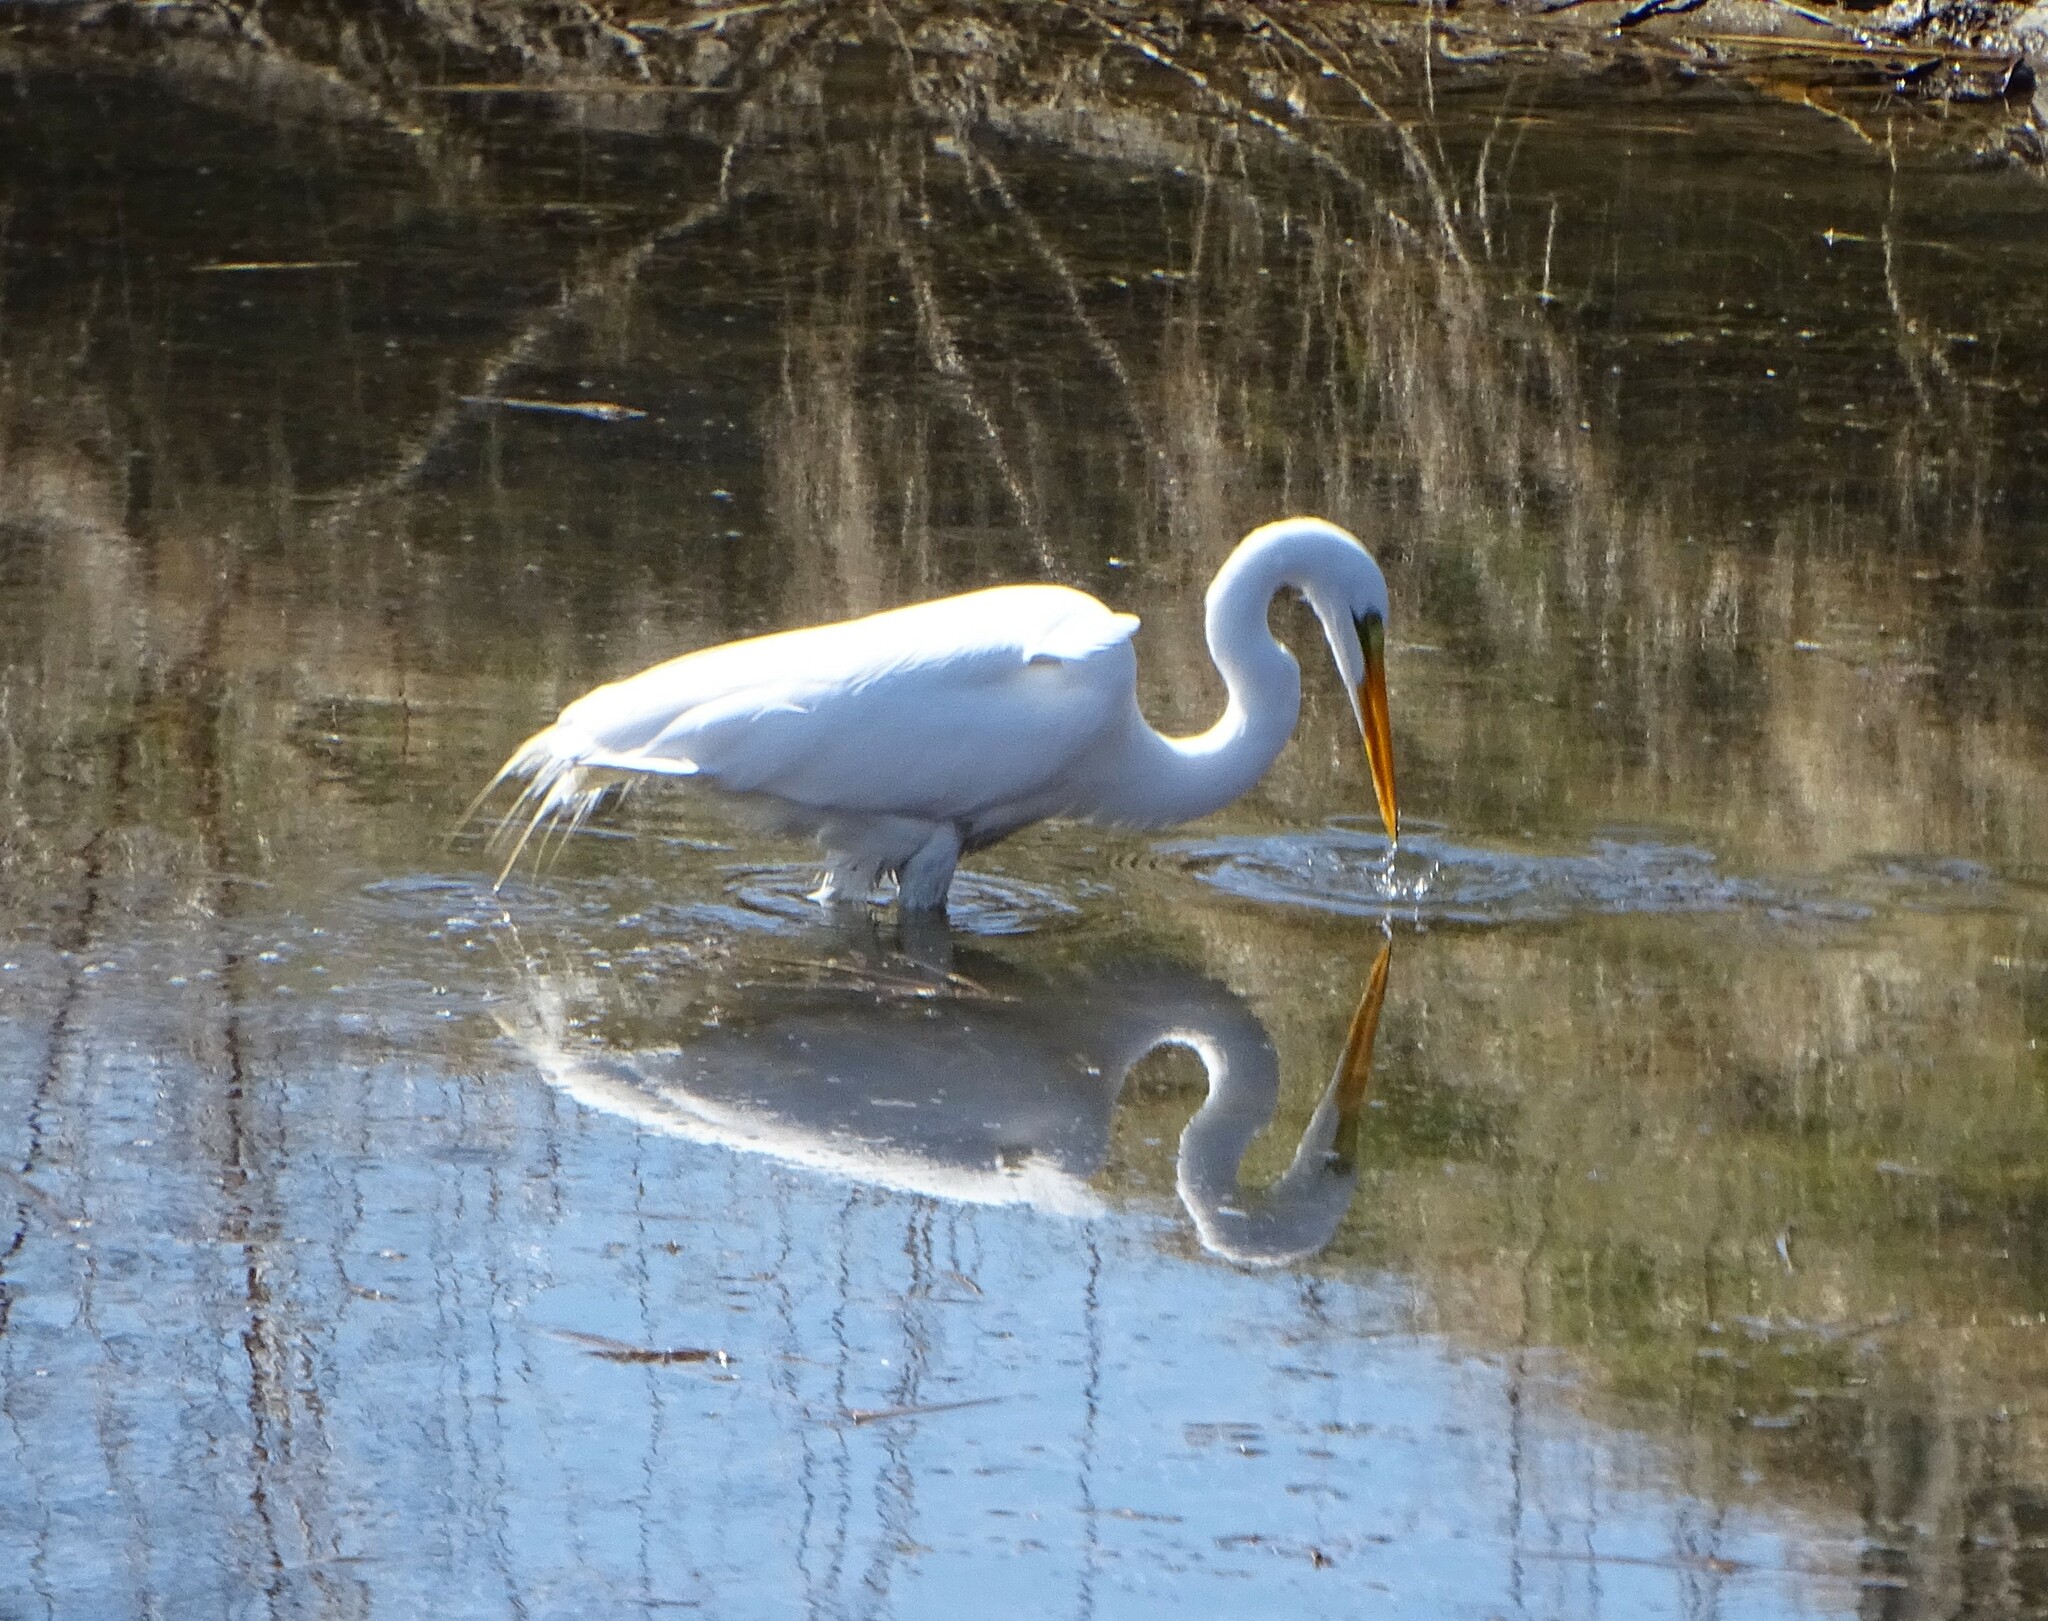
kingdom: Animalia
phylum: Chordata
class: Aves
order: Pelecaniformes
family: Ardeidae
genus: Ardea
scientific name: Ardea alba
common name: Great egret
